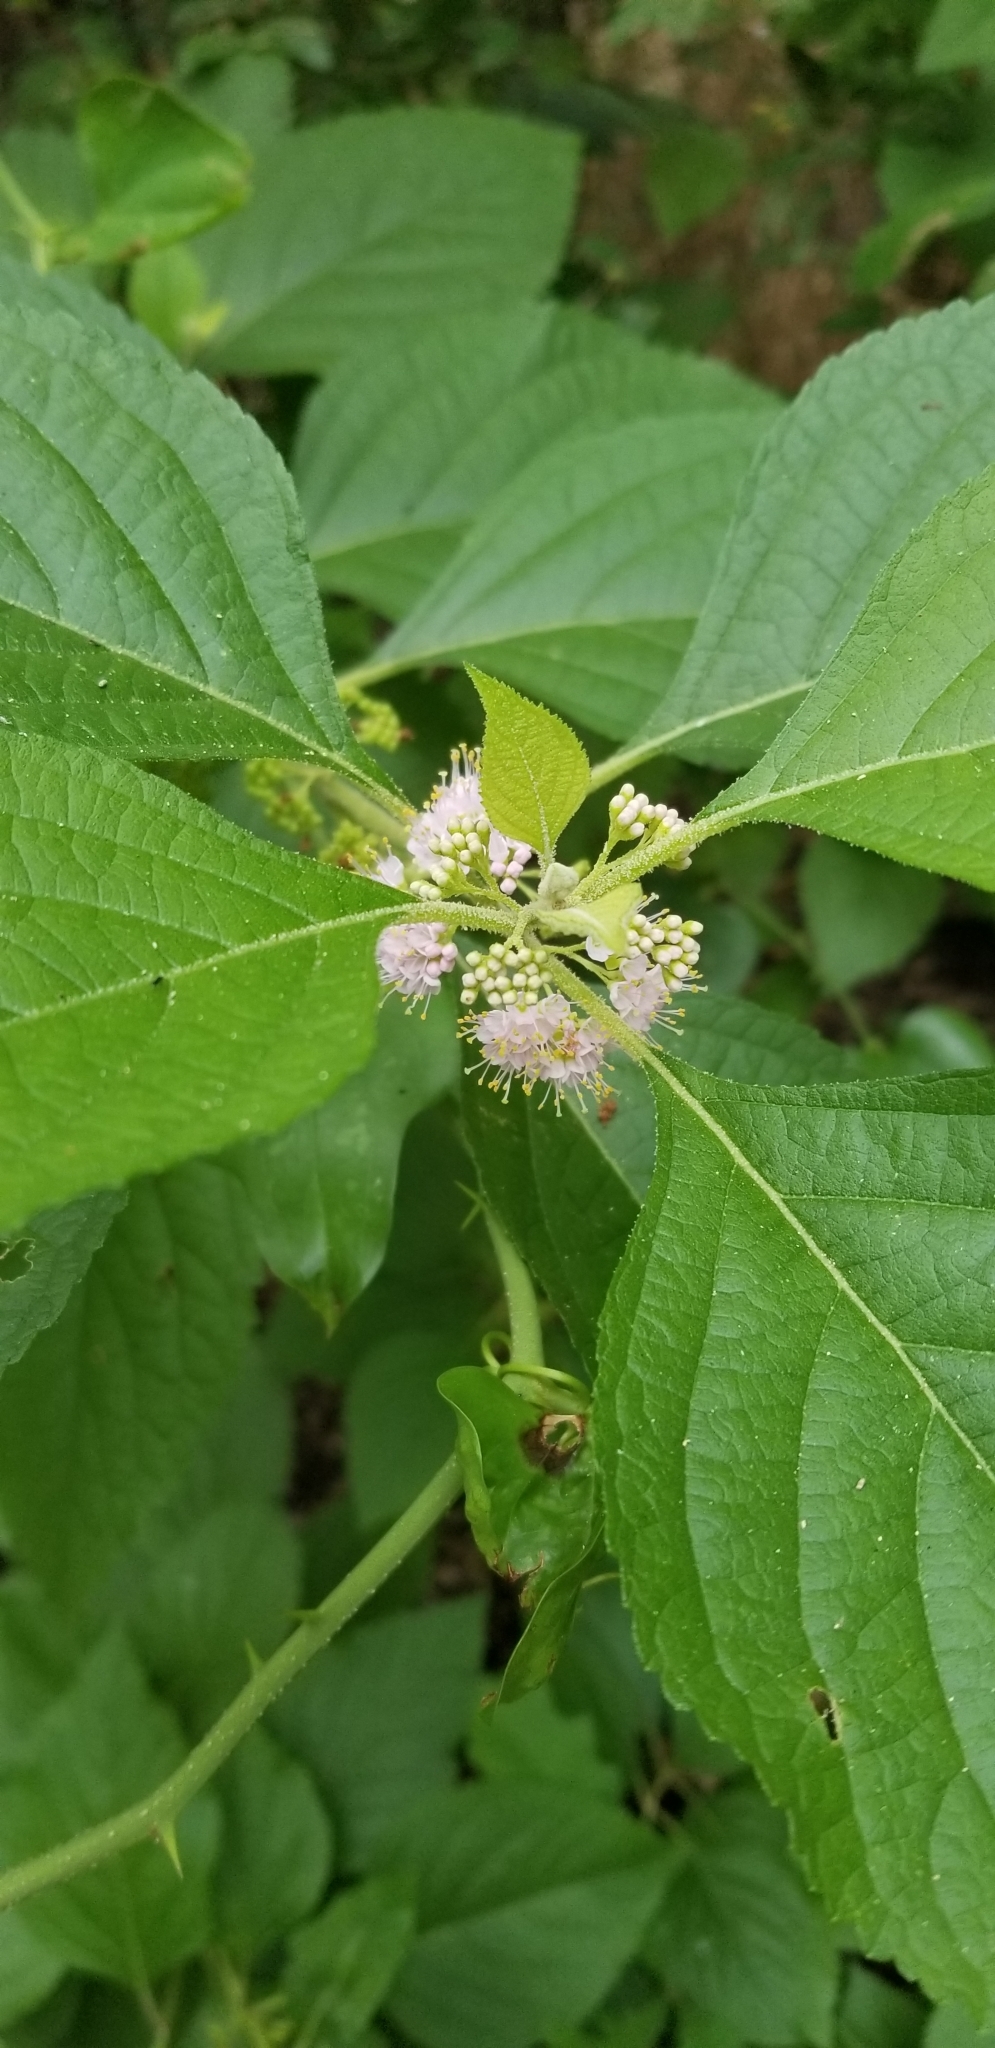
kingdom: Plantae
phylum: Tracheophyta
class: Magnoliopsida
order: Lamiales
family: Lamiaceae
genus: Callicarpa
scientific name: Callicarpa americana
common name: American beautyberry
